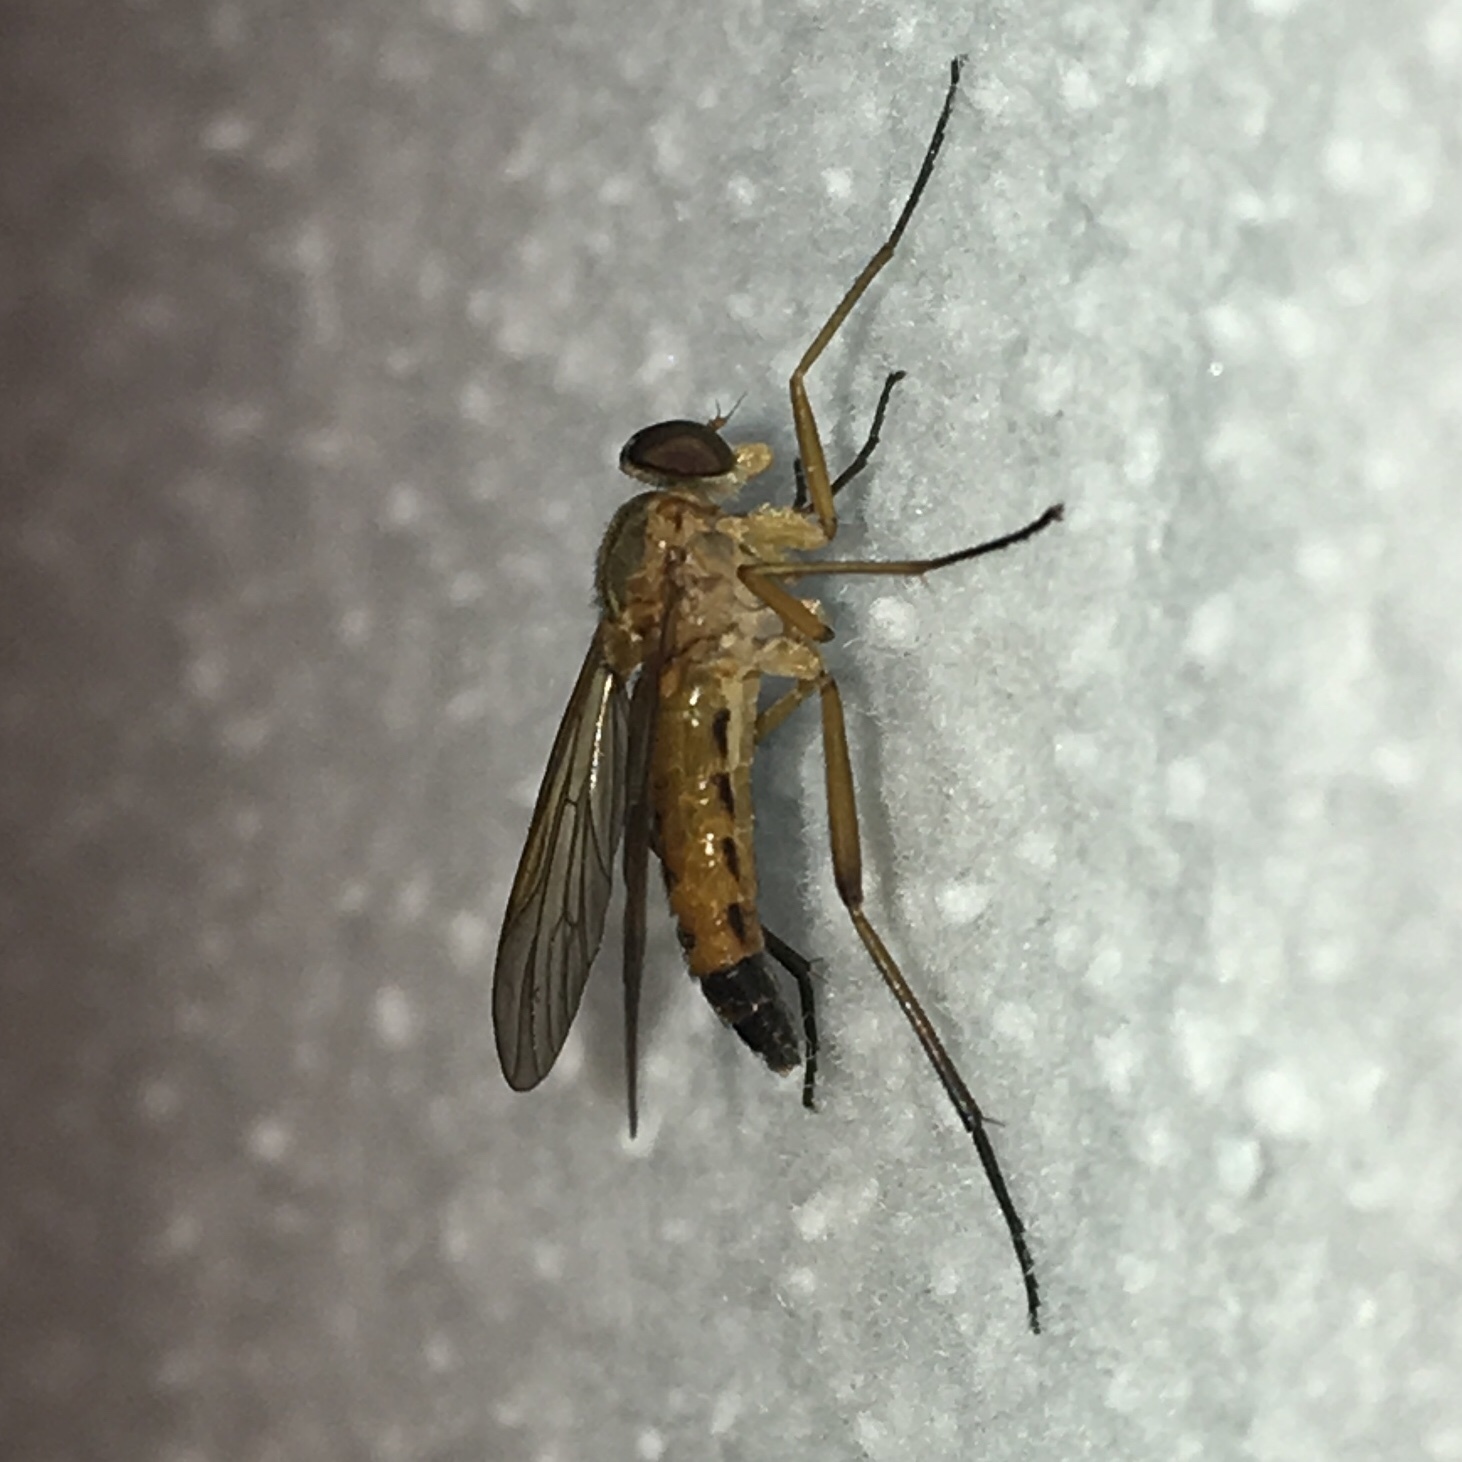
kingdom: Animalia
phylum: Arthropoda
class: Insecta
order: Diptera
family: Rhagionidae
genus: Rhagio
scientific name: Rhagio tringaria
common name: Marsh snipefly
